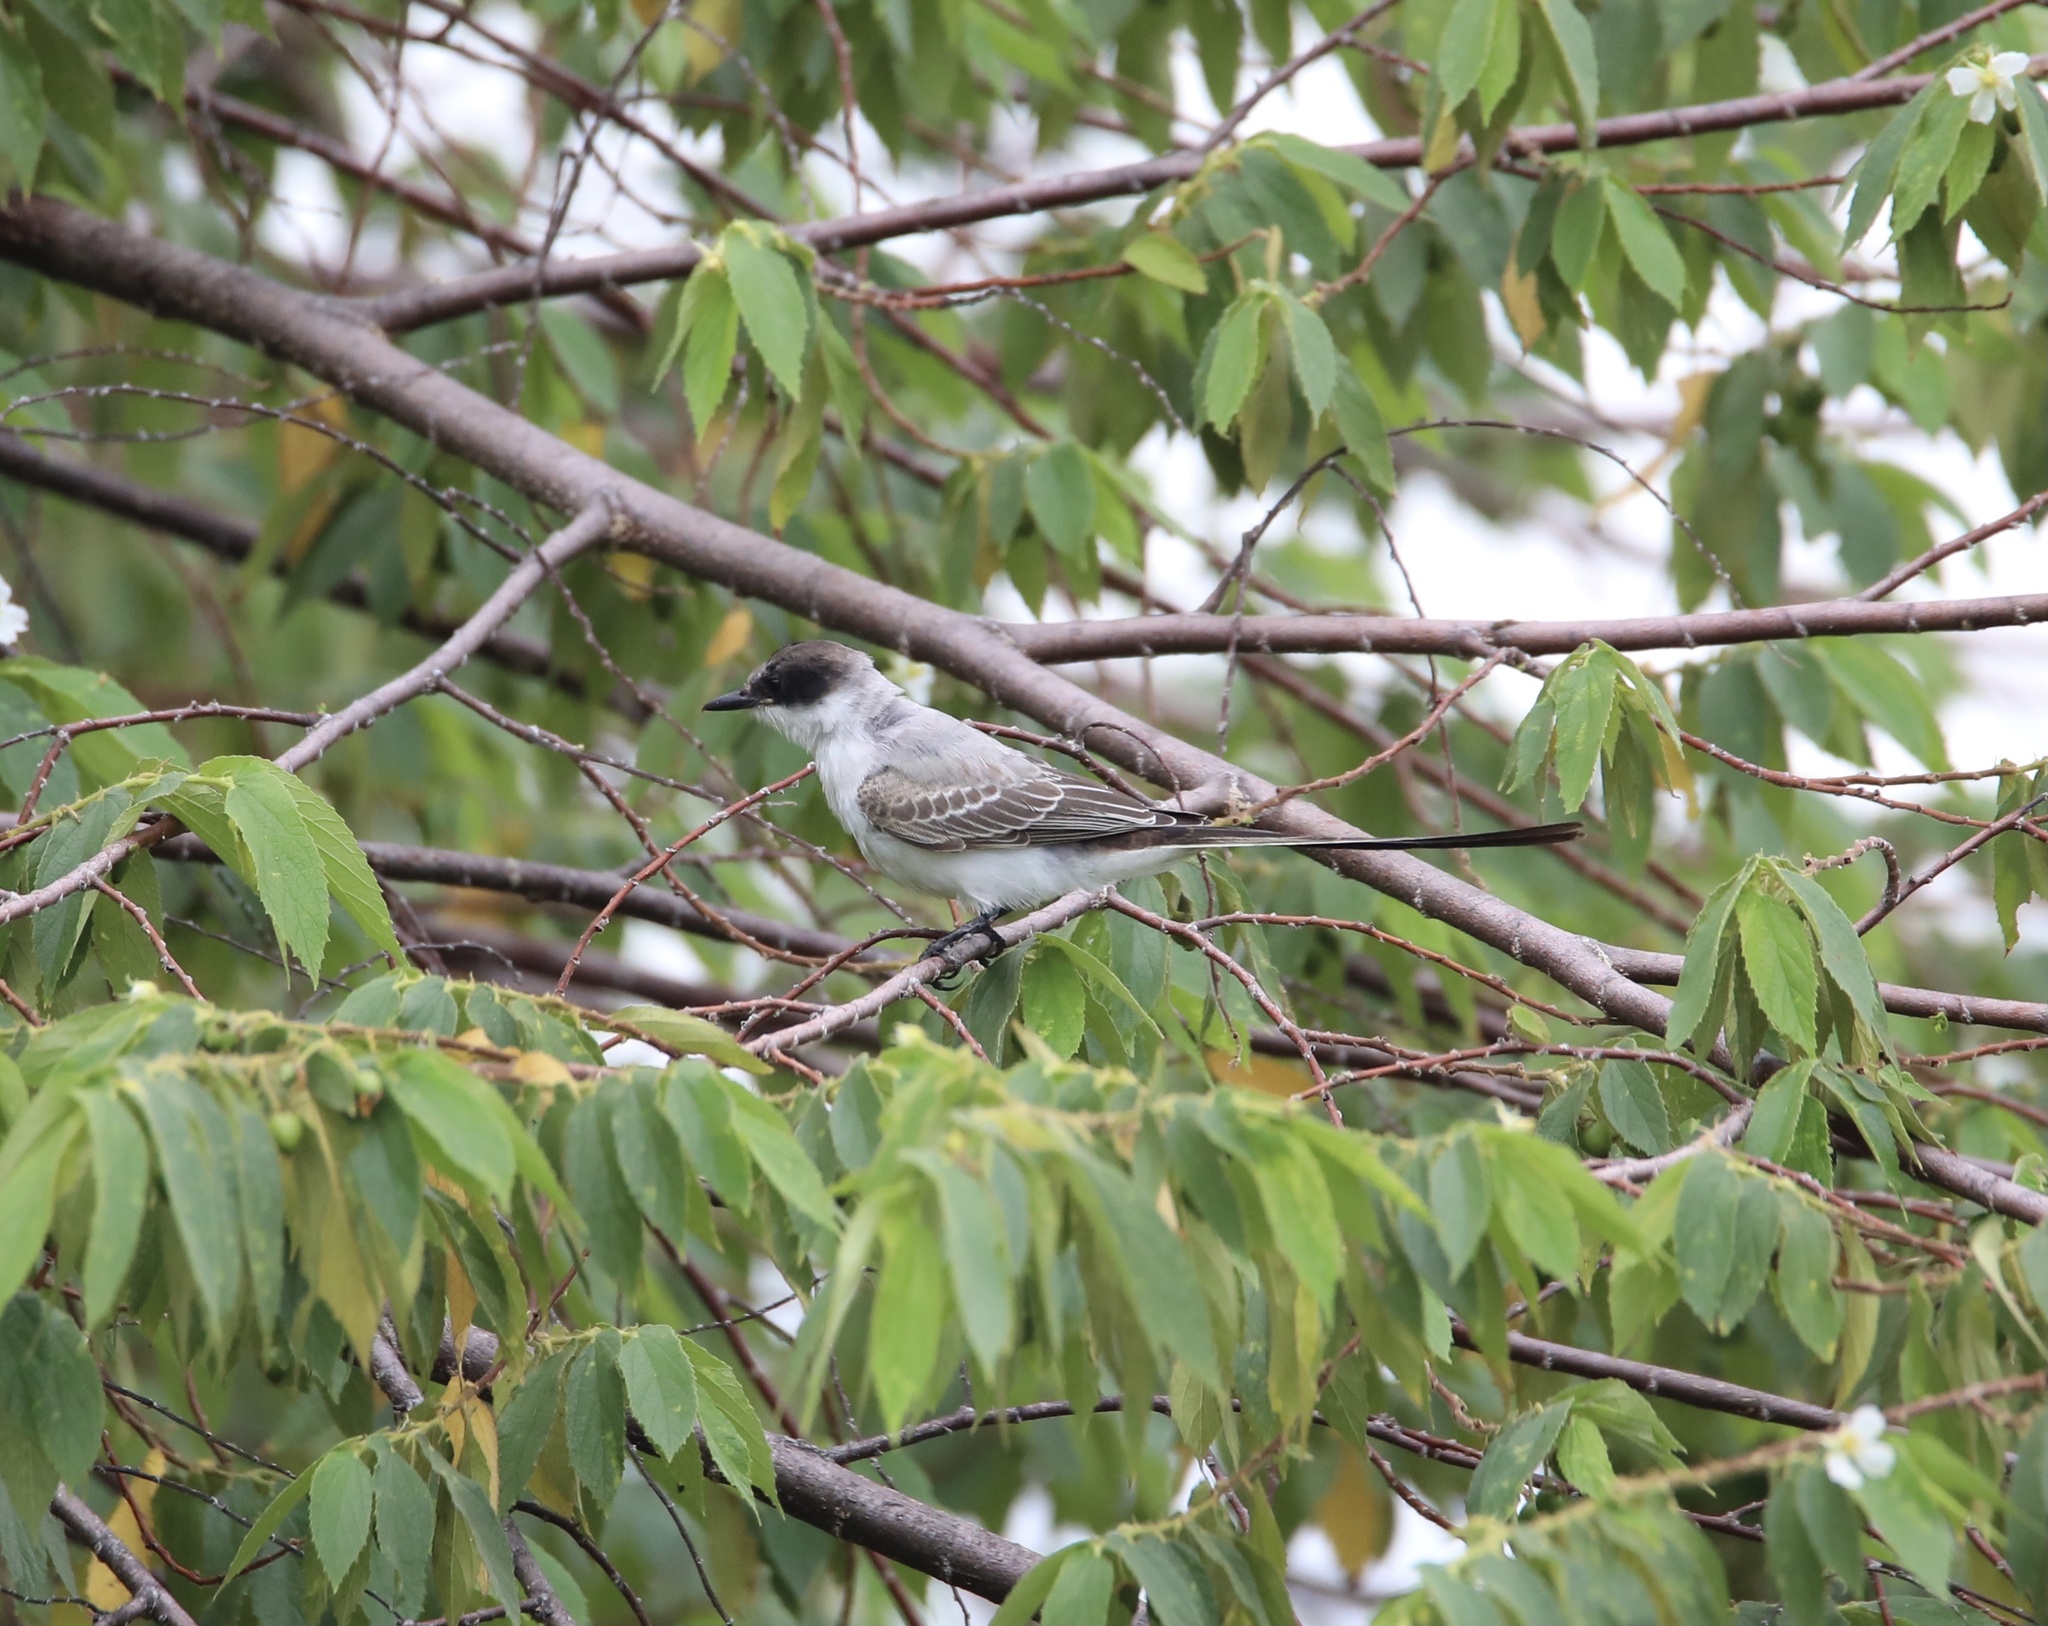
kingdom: Animalia
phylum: Chordata
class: Aves
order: Passeriformes
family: Tyrannidae
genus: Tyrannus
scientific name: Tyrannus savana
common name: Fork-tailed flycatcher
